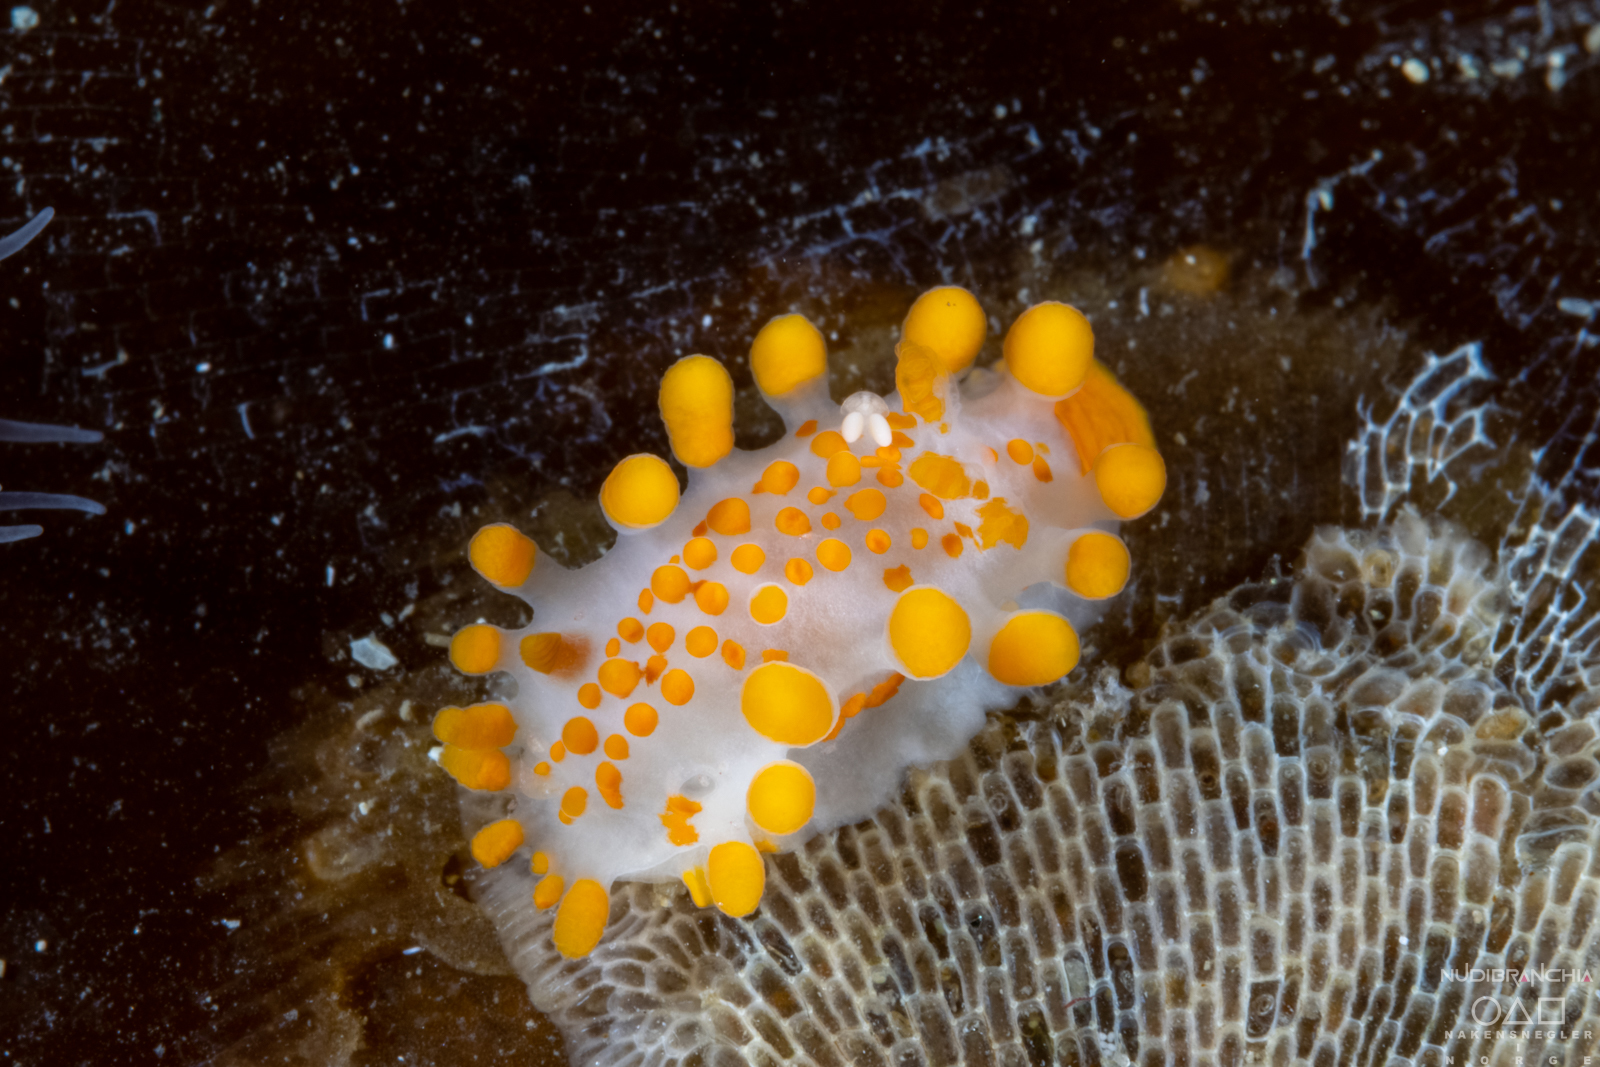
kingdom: Animalia
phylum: Mollusca
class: Gastropoda
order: Nudibranchia
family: Polyceridae
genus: Limacia
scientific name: Limacia clavigera
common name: Orange-clubbed sea slug
